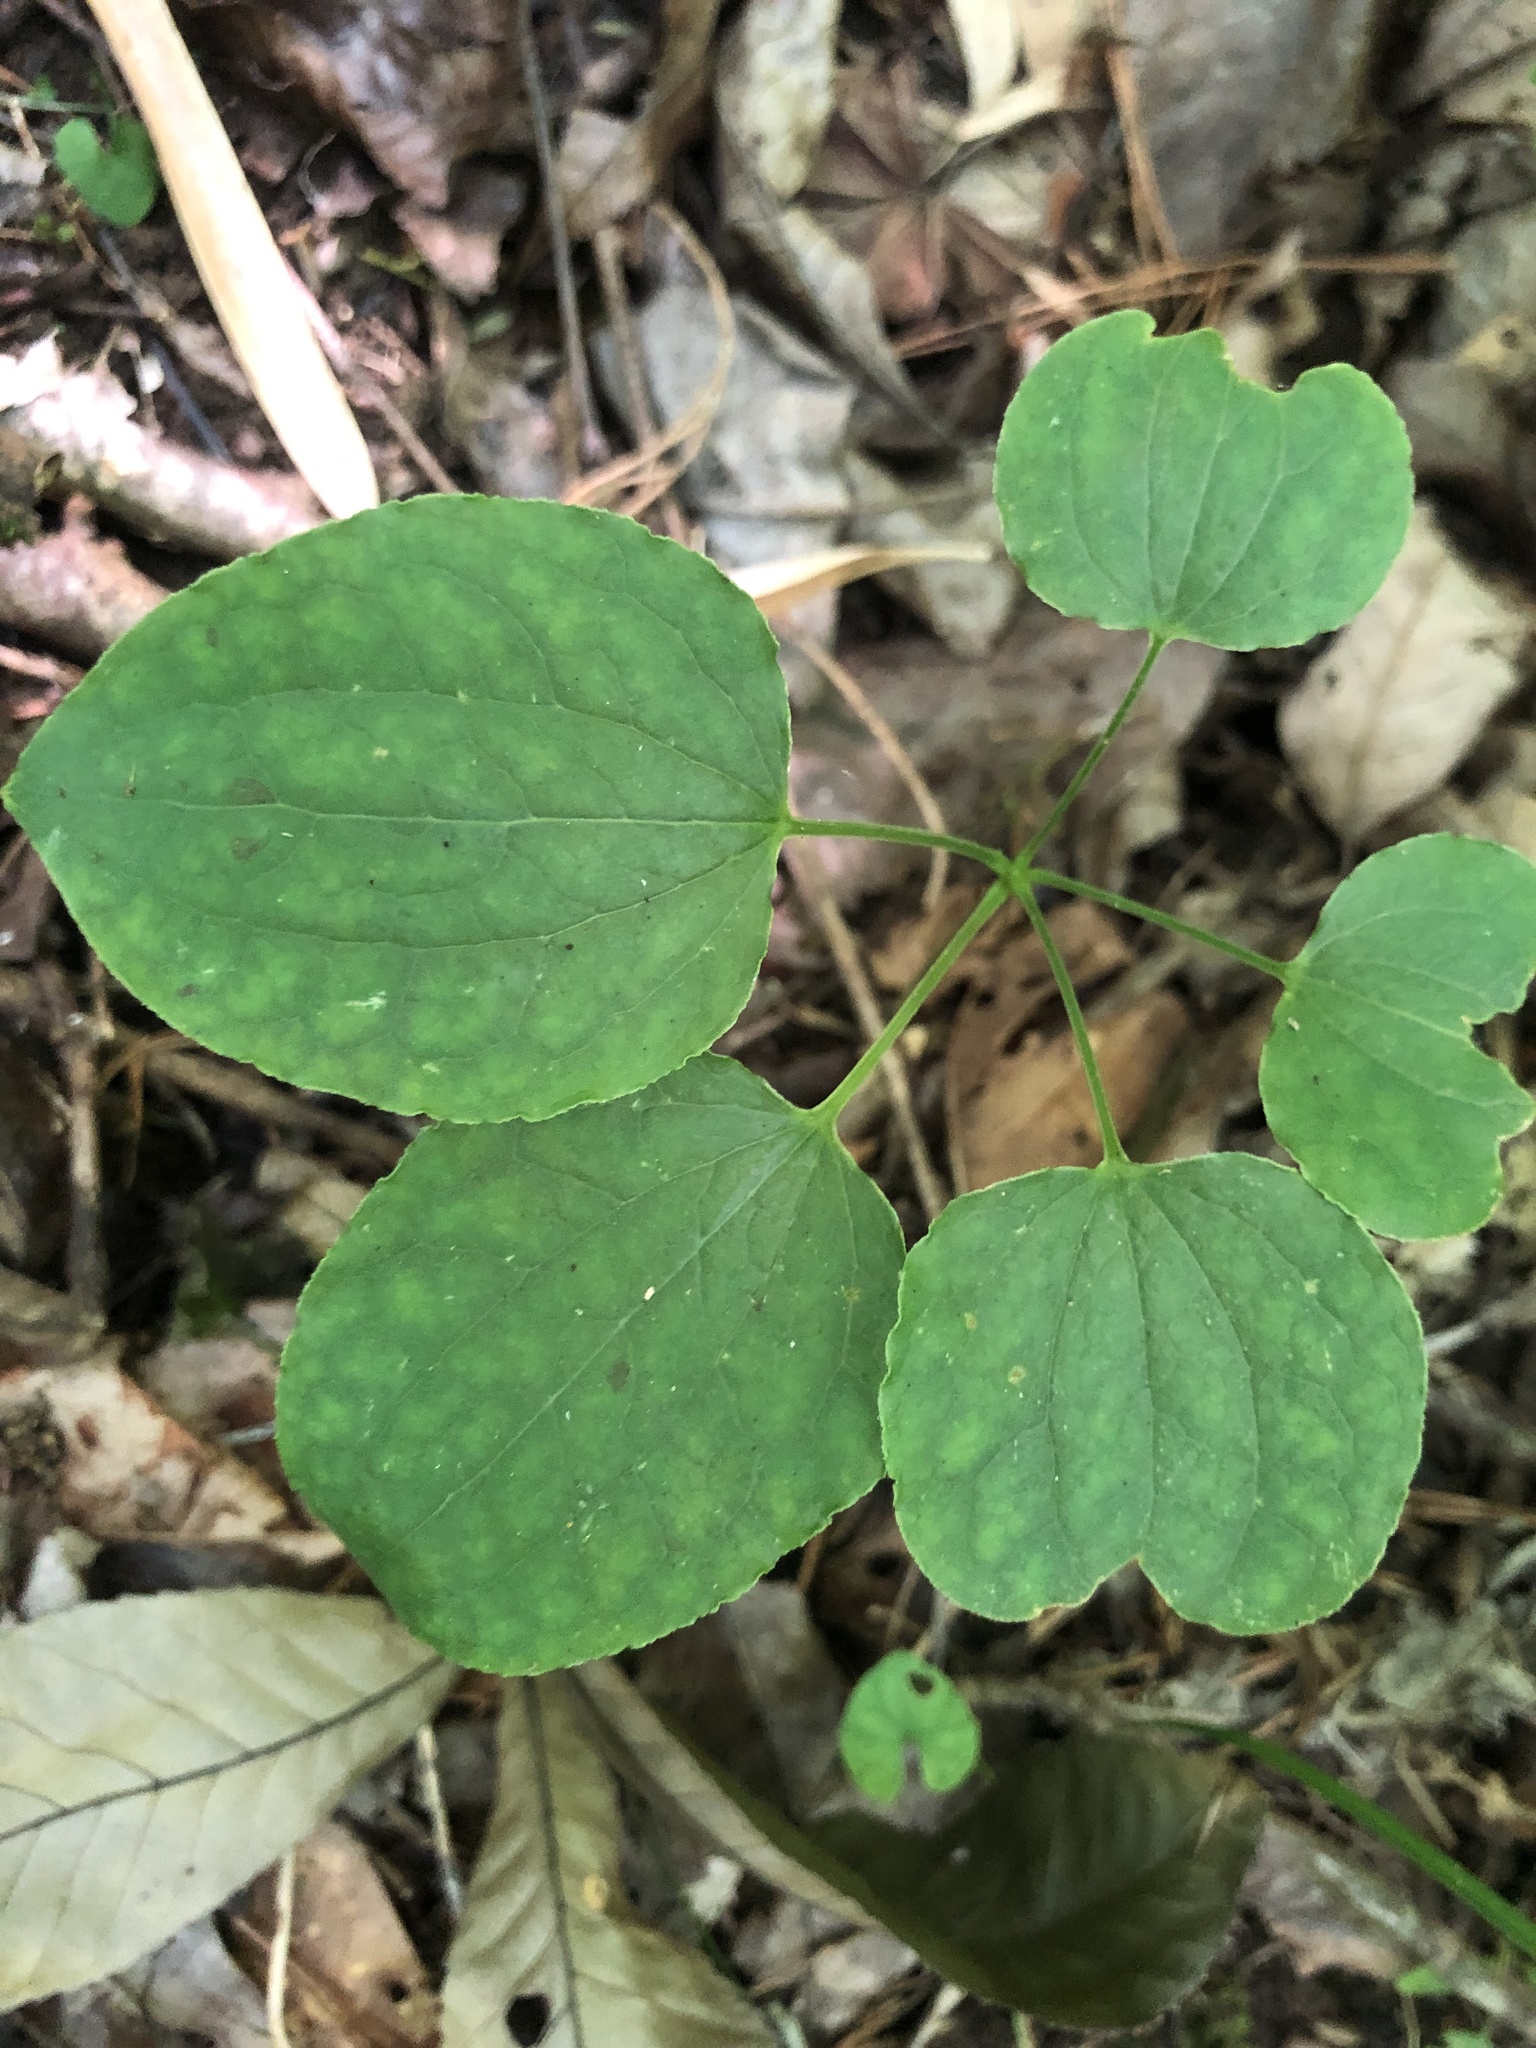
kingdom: Plantae
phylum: Tracheophyta
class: Liliopsida
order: Liliales
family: Smilacaceae
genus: Smilax
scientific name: Smilax lasioneura
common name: Blue ridge carrionflower
